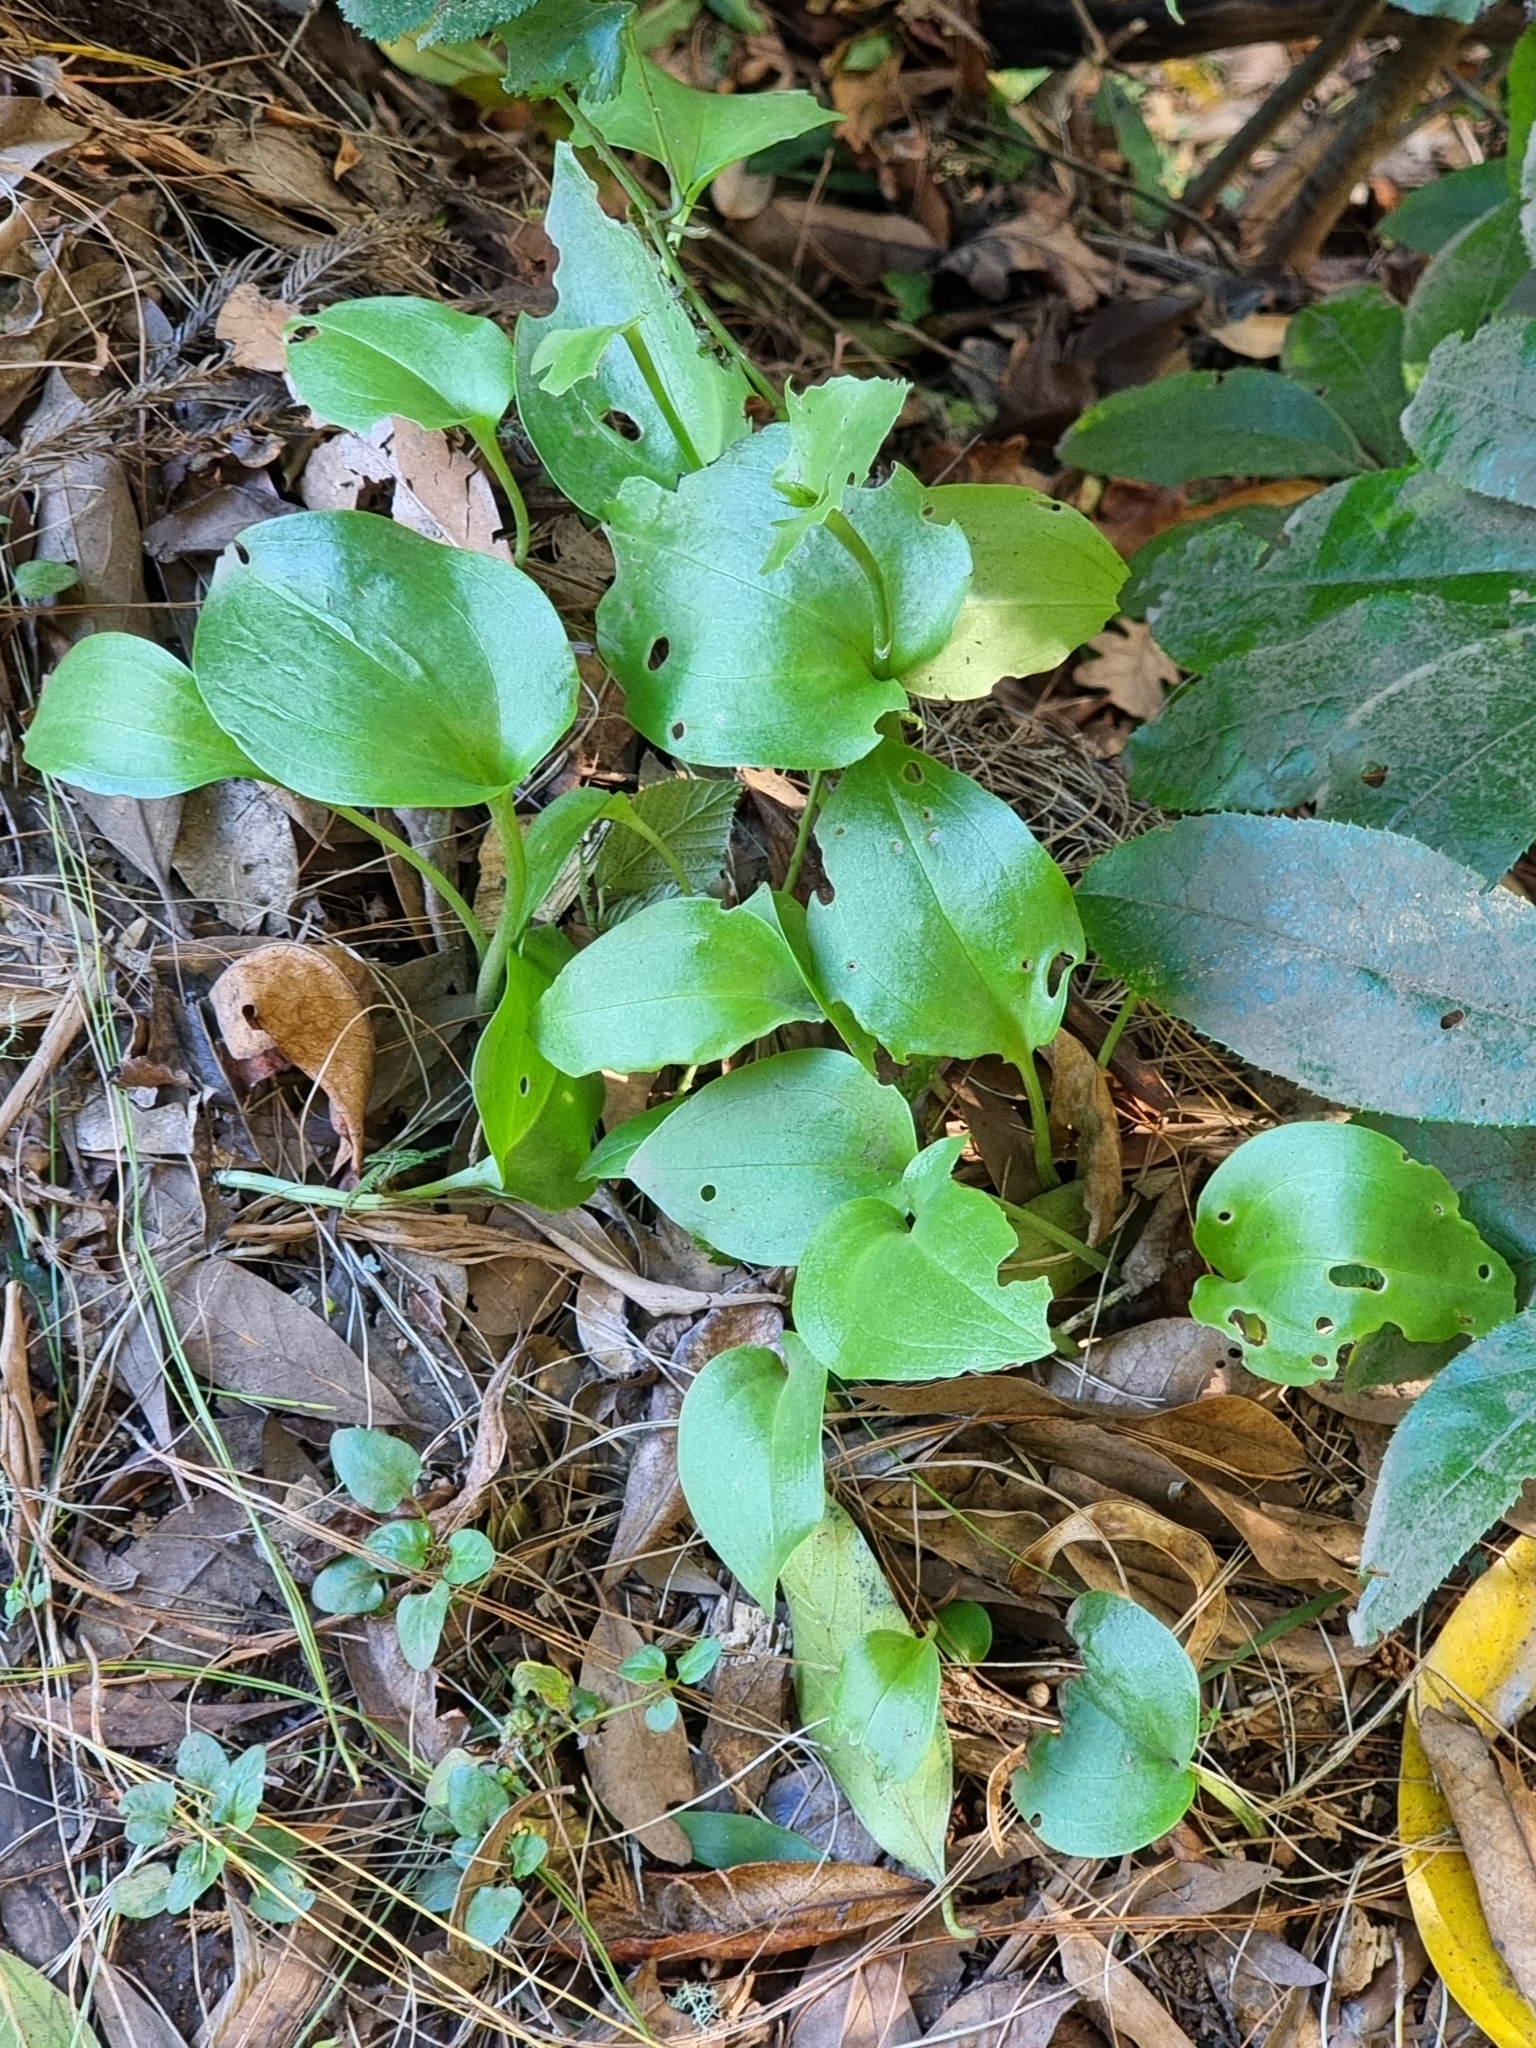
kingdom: Plantae
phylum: Tracheophyta
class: Liliopsida
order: Asparagales
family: Orchidaceae
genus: Gennaria
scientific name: Gennaria diphylla
